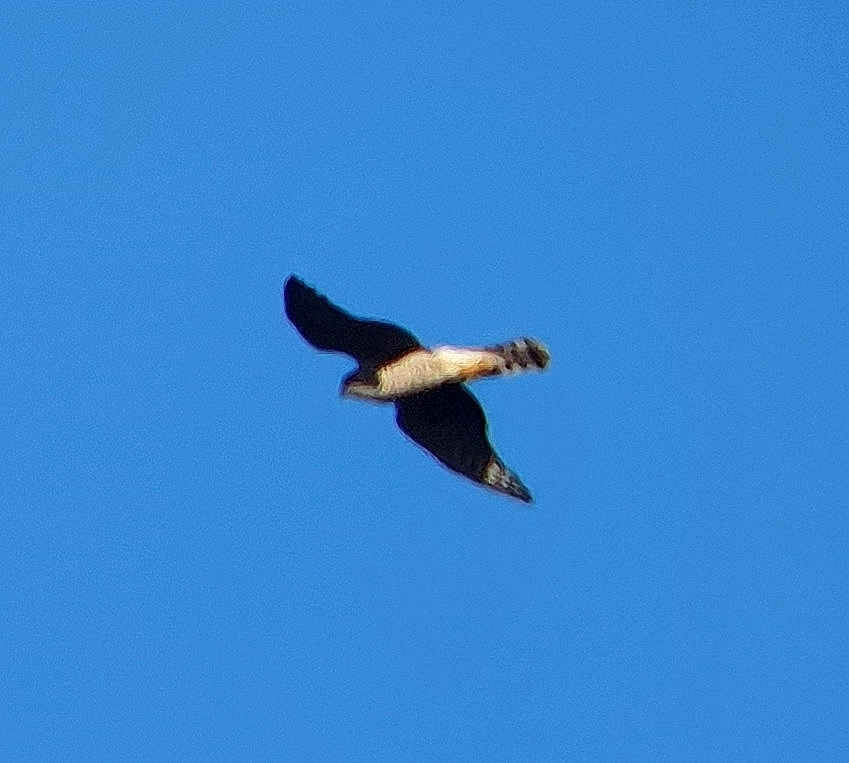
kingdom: Animalia
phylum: Chordata
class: Aves
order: Accipitriformes
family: Accipitridae
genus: Accipiter
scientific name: Accipiter nisus
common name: Eurasian sparrowhawk
